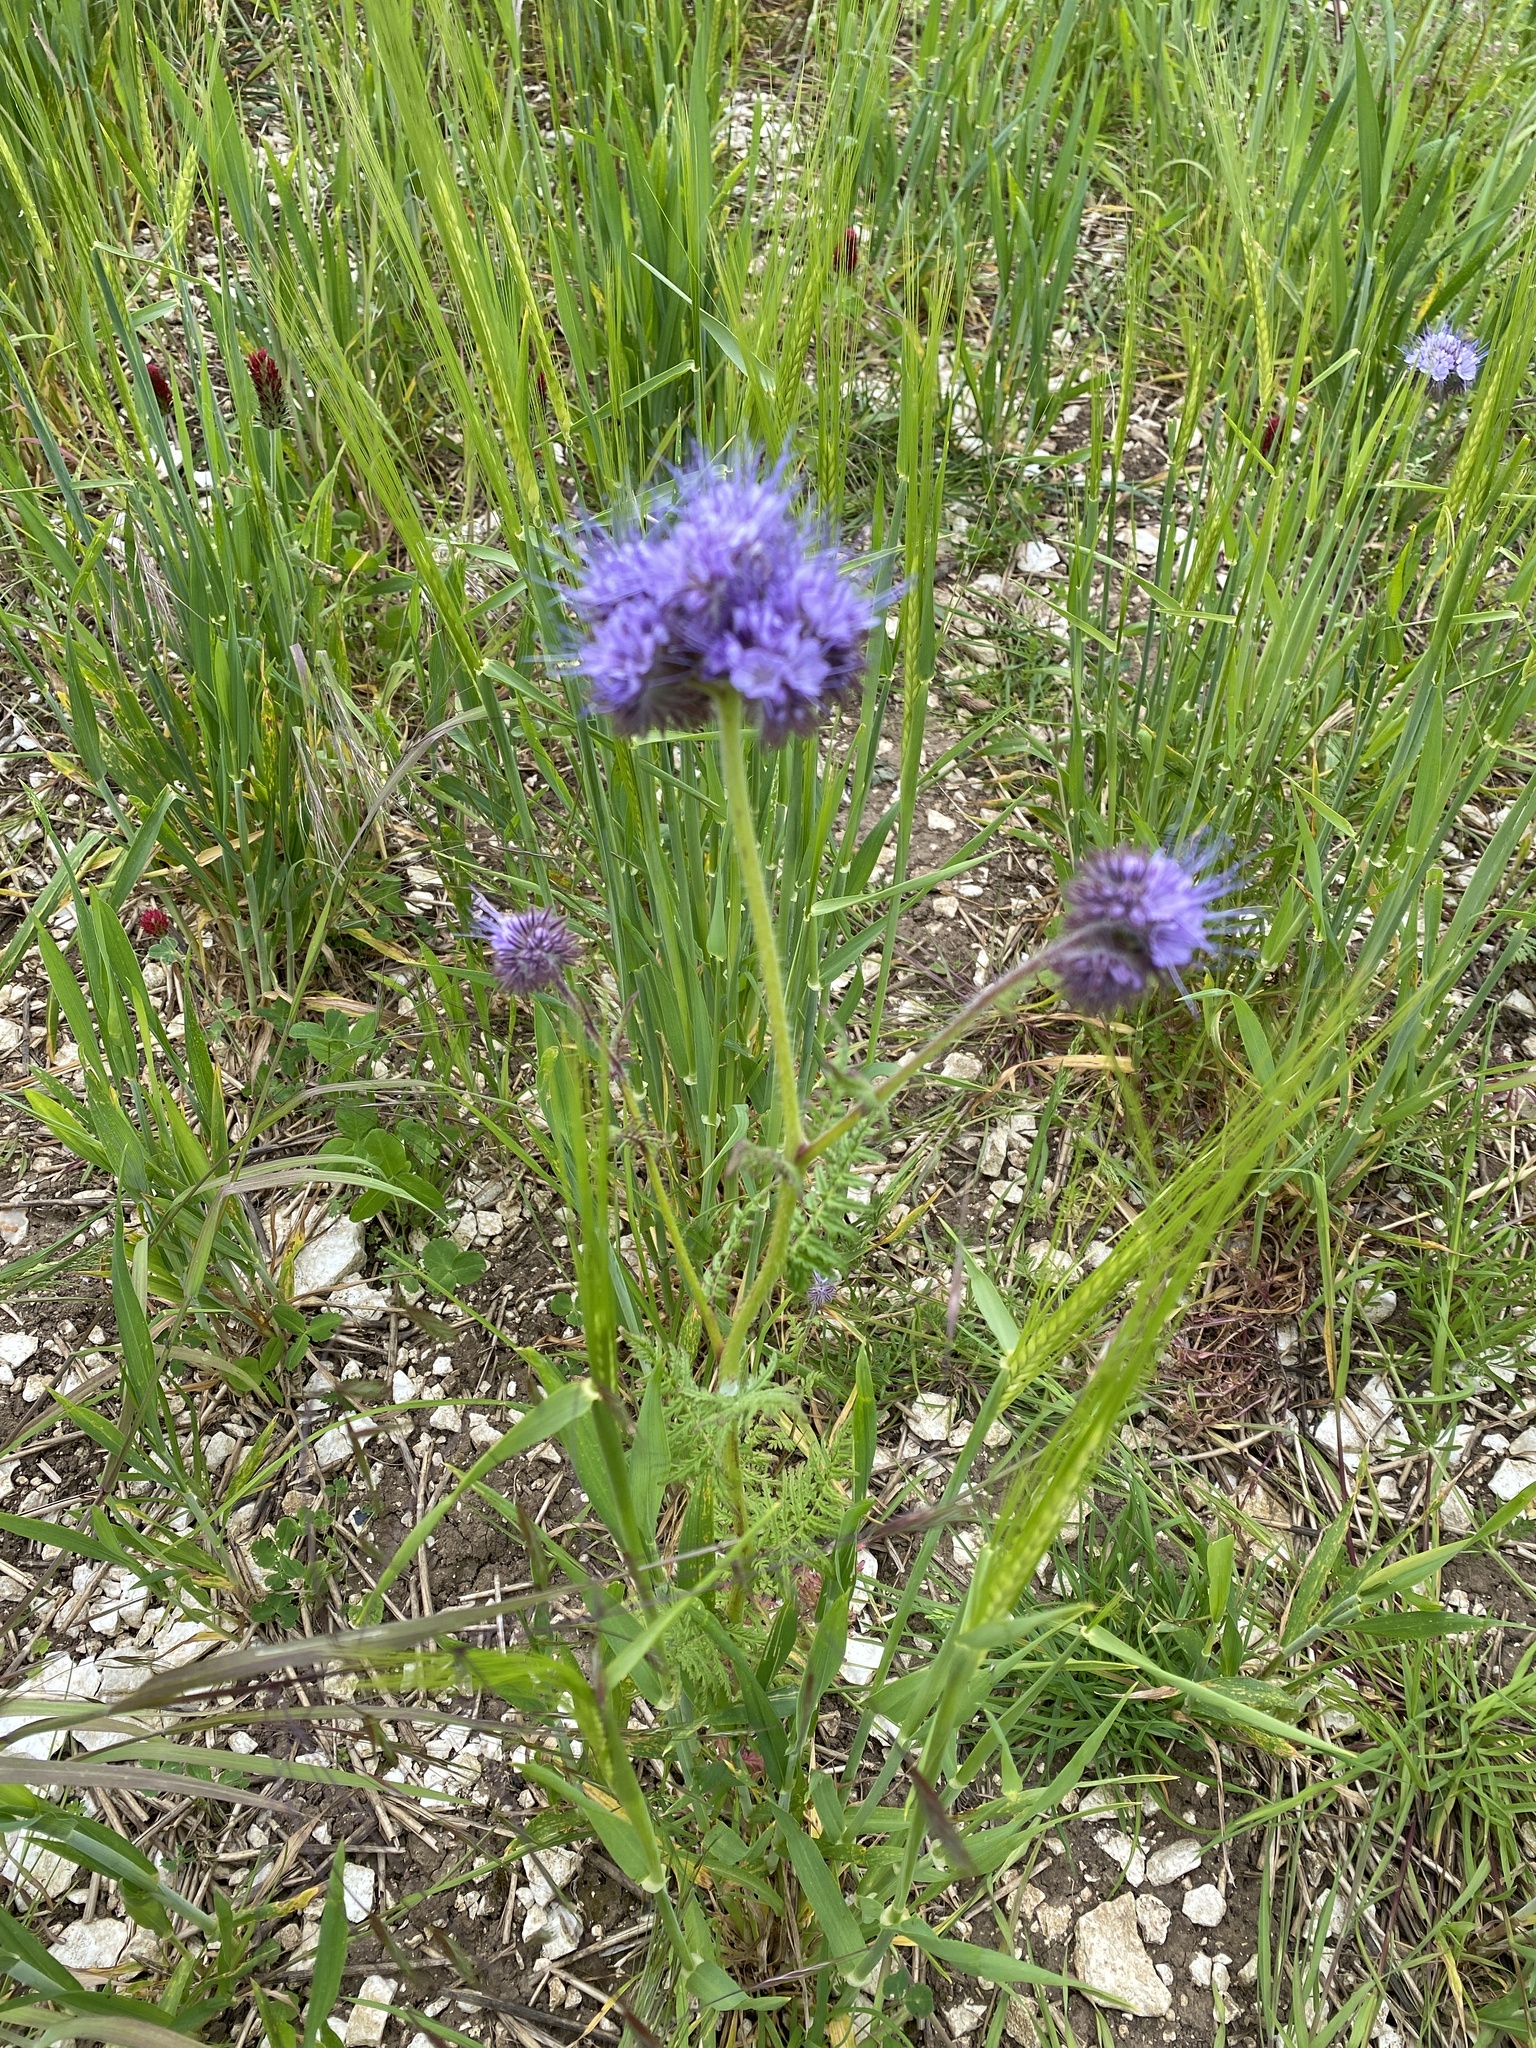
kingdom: Plantae
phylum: Tracheophyta
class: Magnoliopsida
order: Boraginales
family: Hydrophyllaceae
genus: Phacelia
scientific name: Phacelia tanacetifolia
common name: Phacelia
